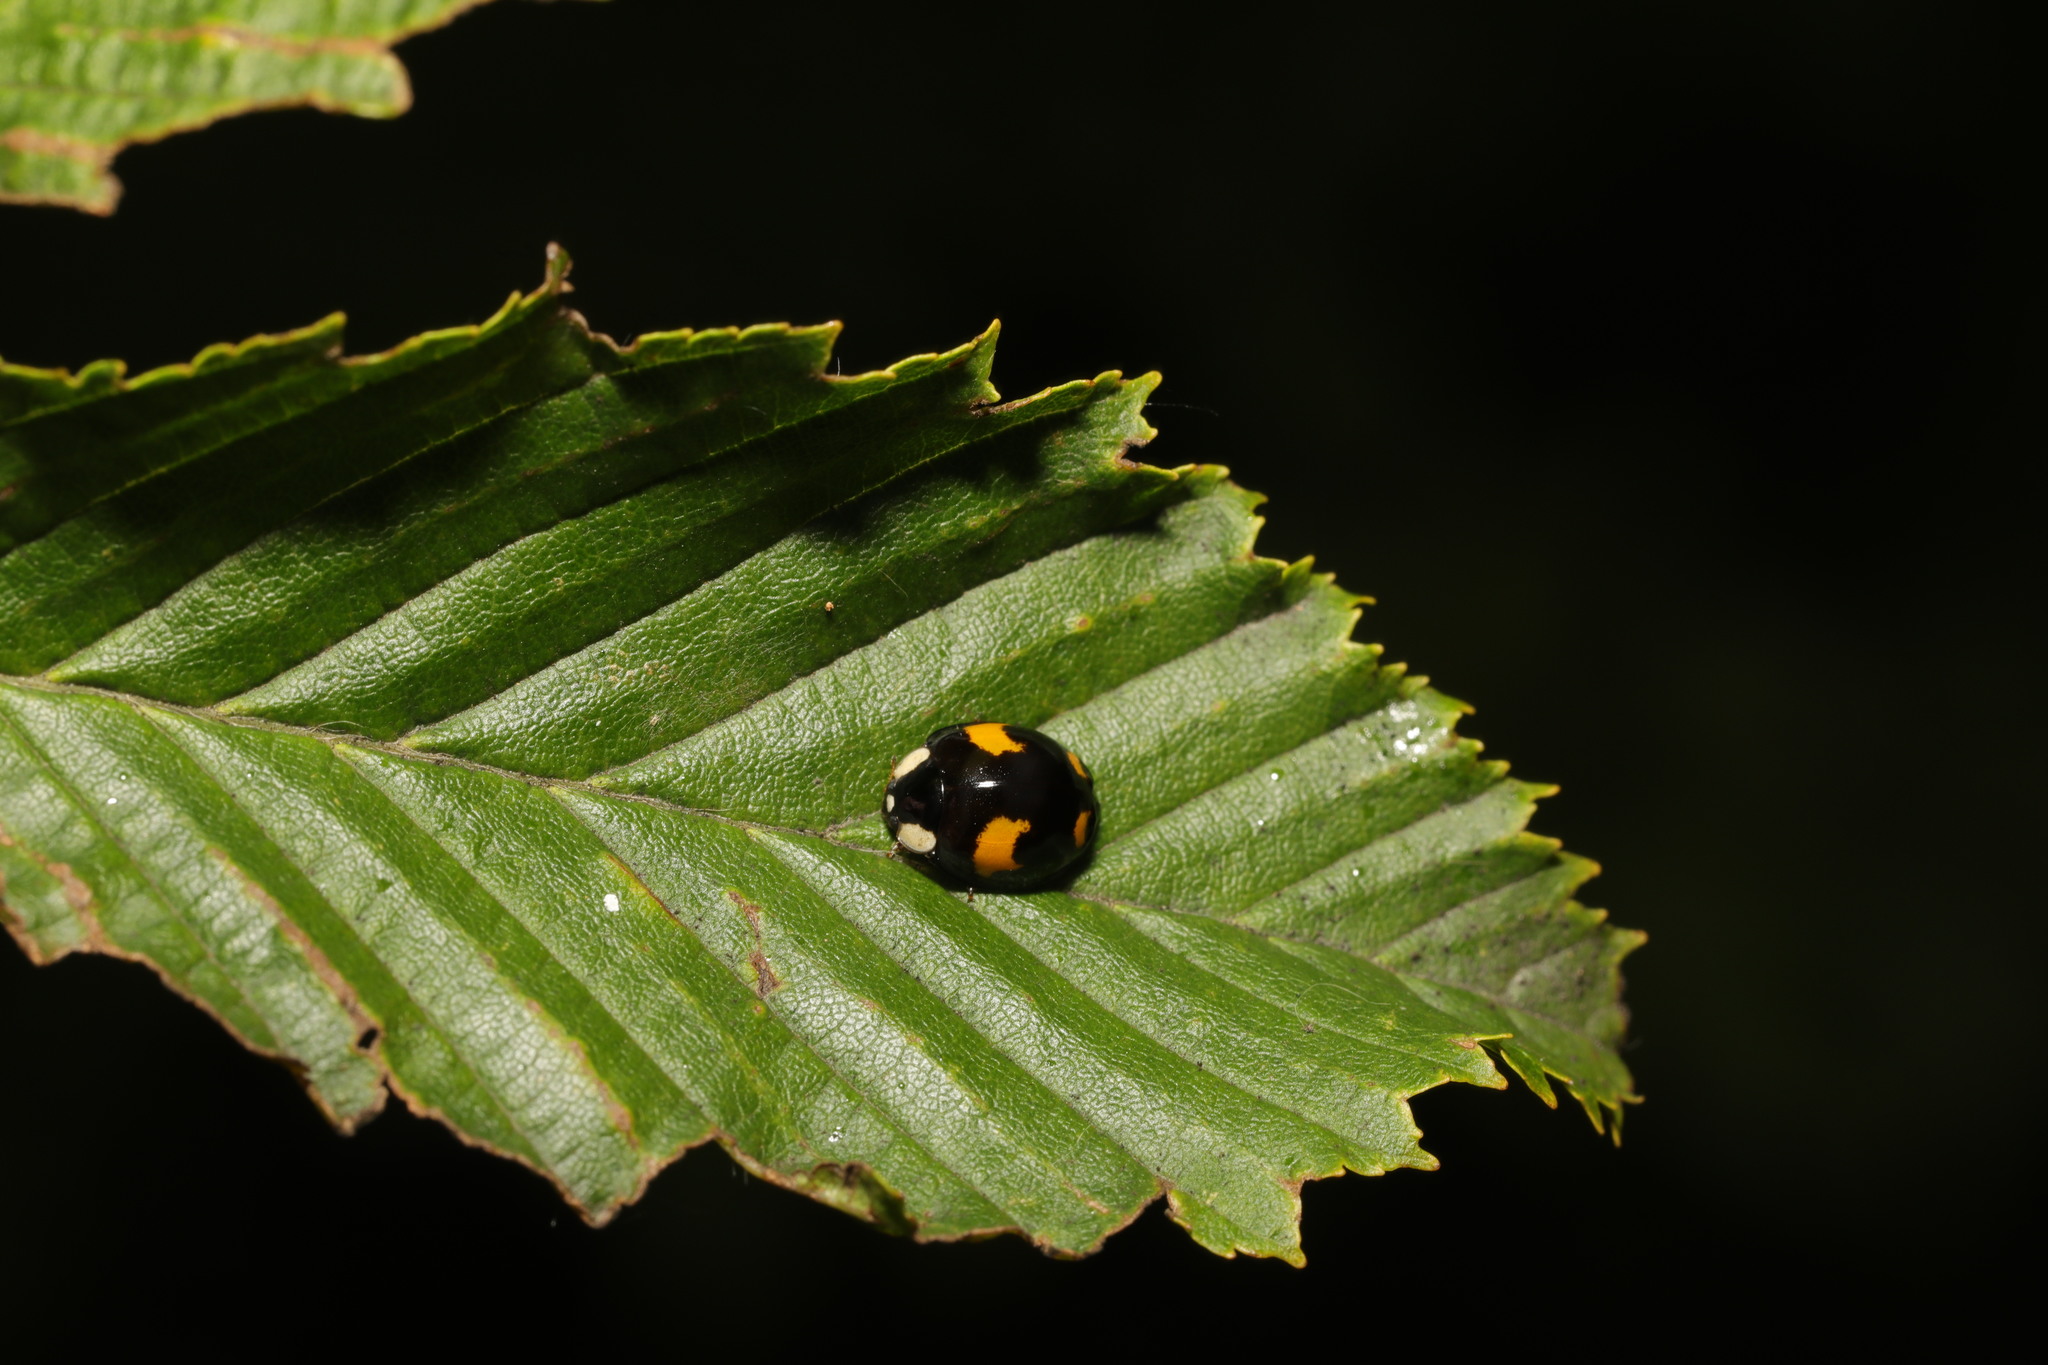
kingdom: Animalia
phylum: Arthropoda
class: Insecta
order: Coleoptera
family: Coccinellidae
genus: Harmonia
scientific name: Harmonia axyridis
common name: Harlequin ladybird
